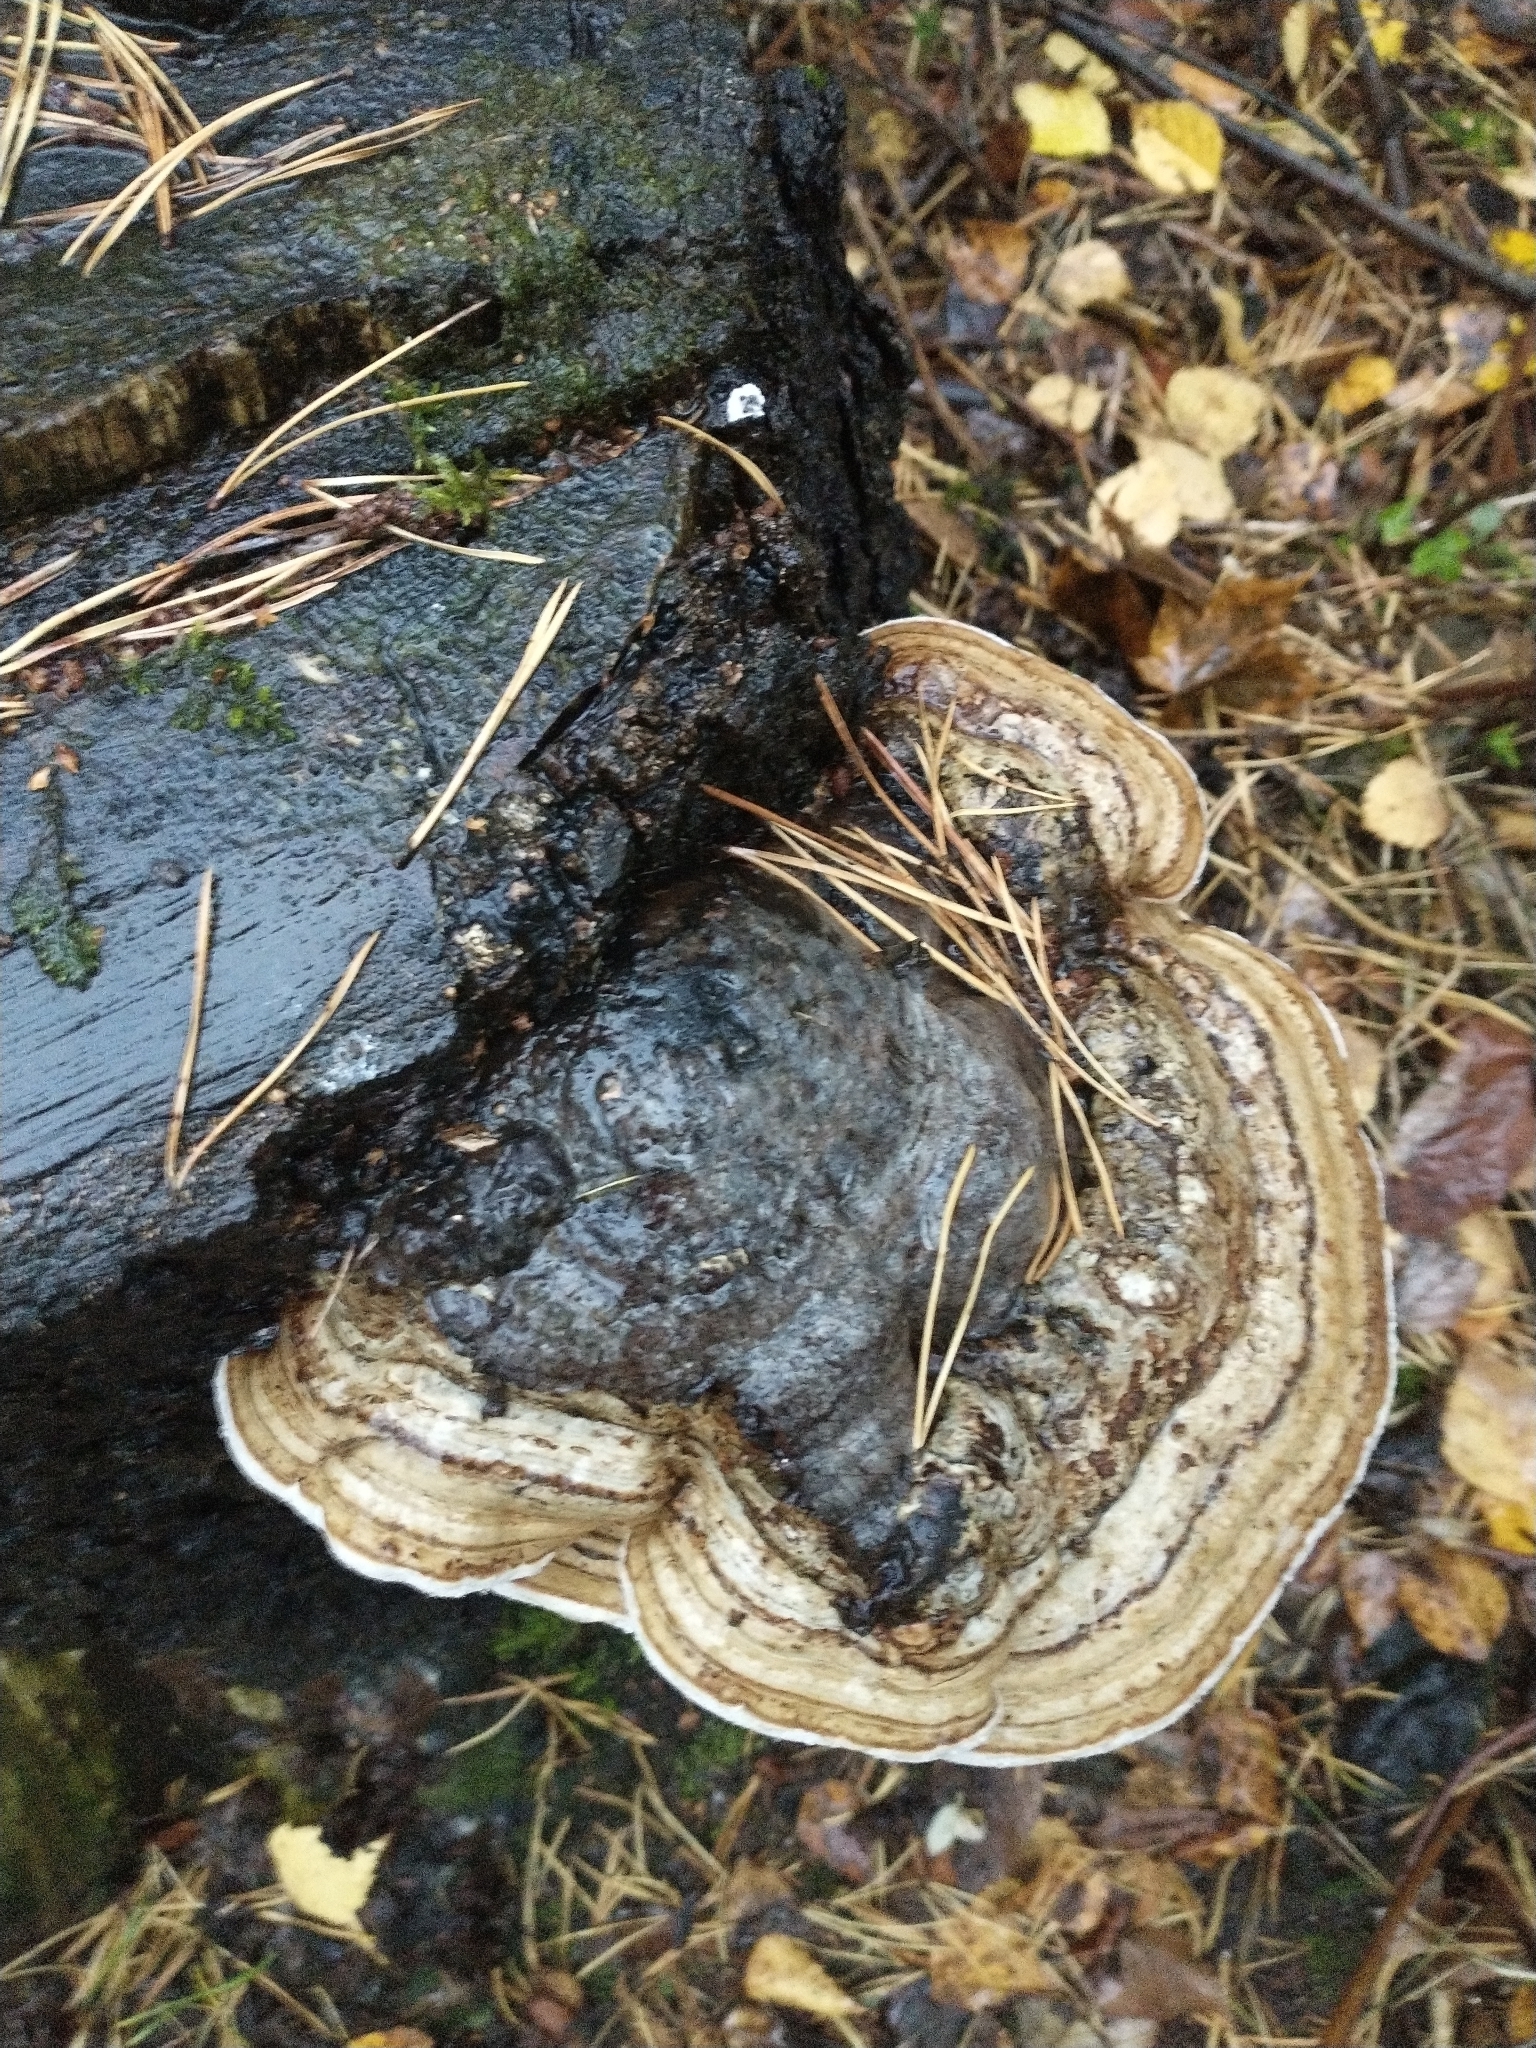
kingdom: Fungi
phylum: Basidiomycota
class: Agaricomycetes
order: Polyporales
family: Polyporaceae
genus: Fomes
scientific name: Fomes fomentarius
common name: Hoof fungus
